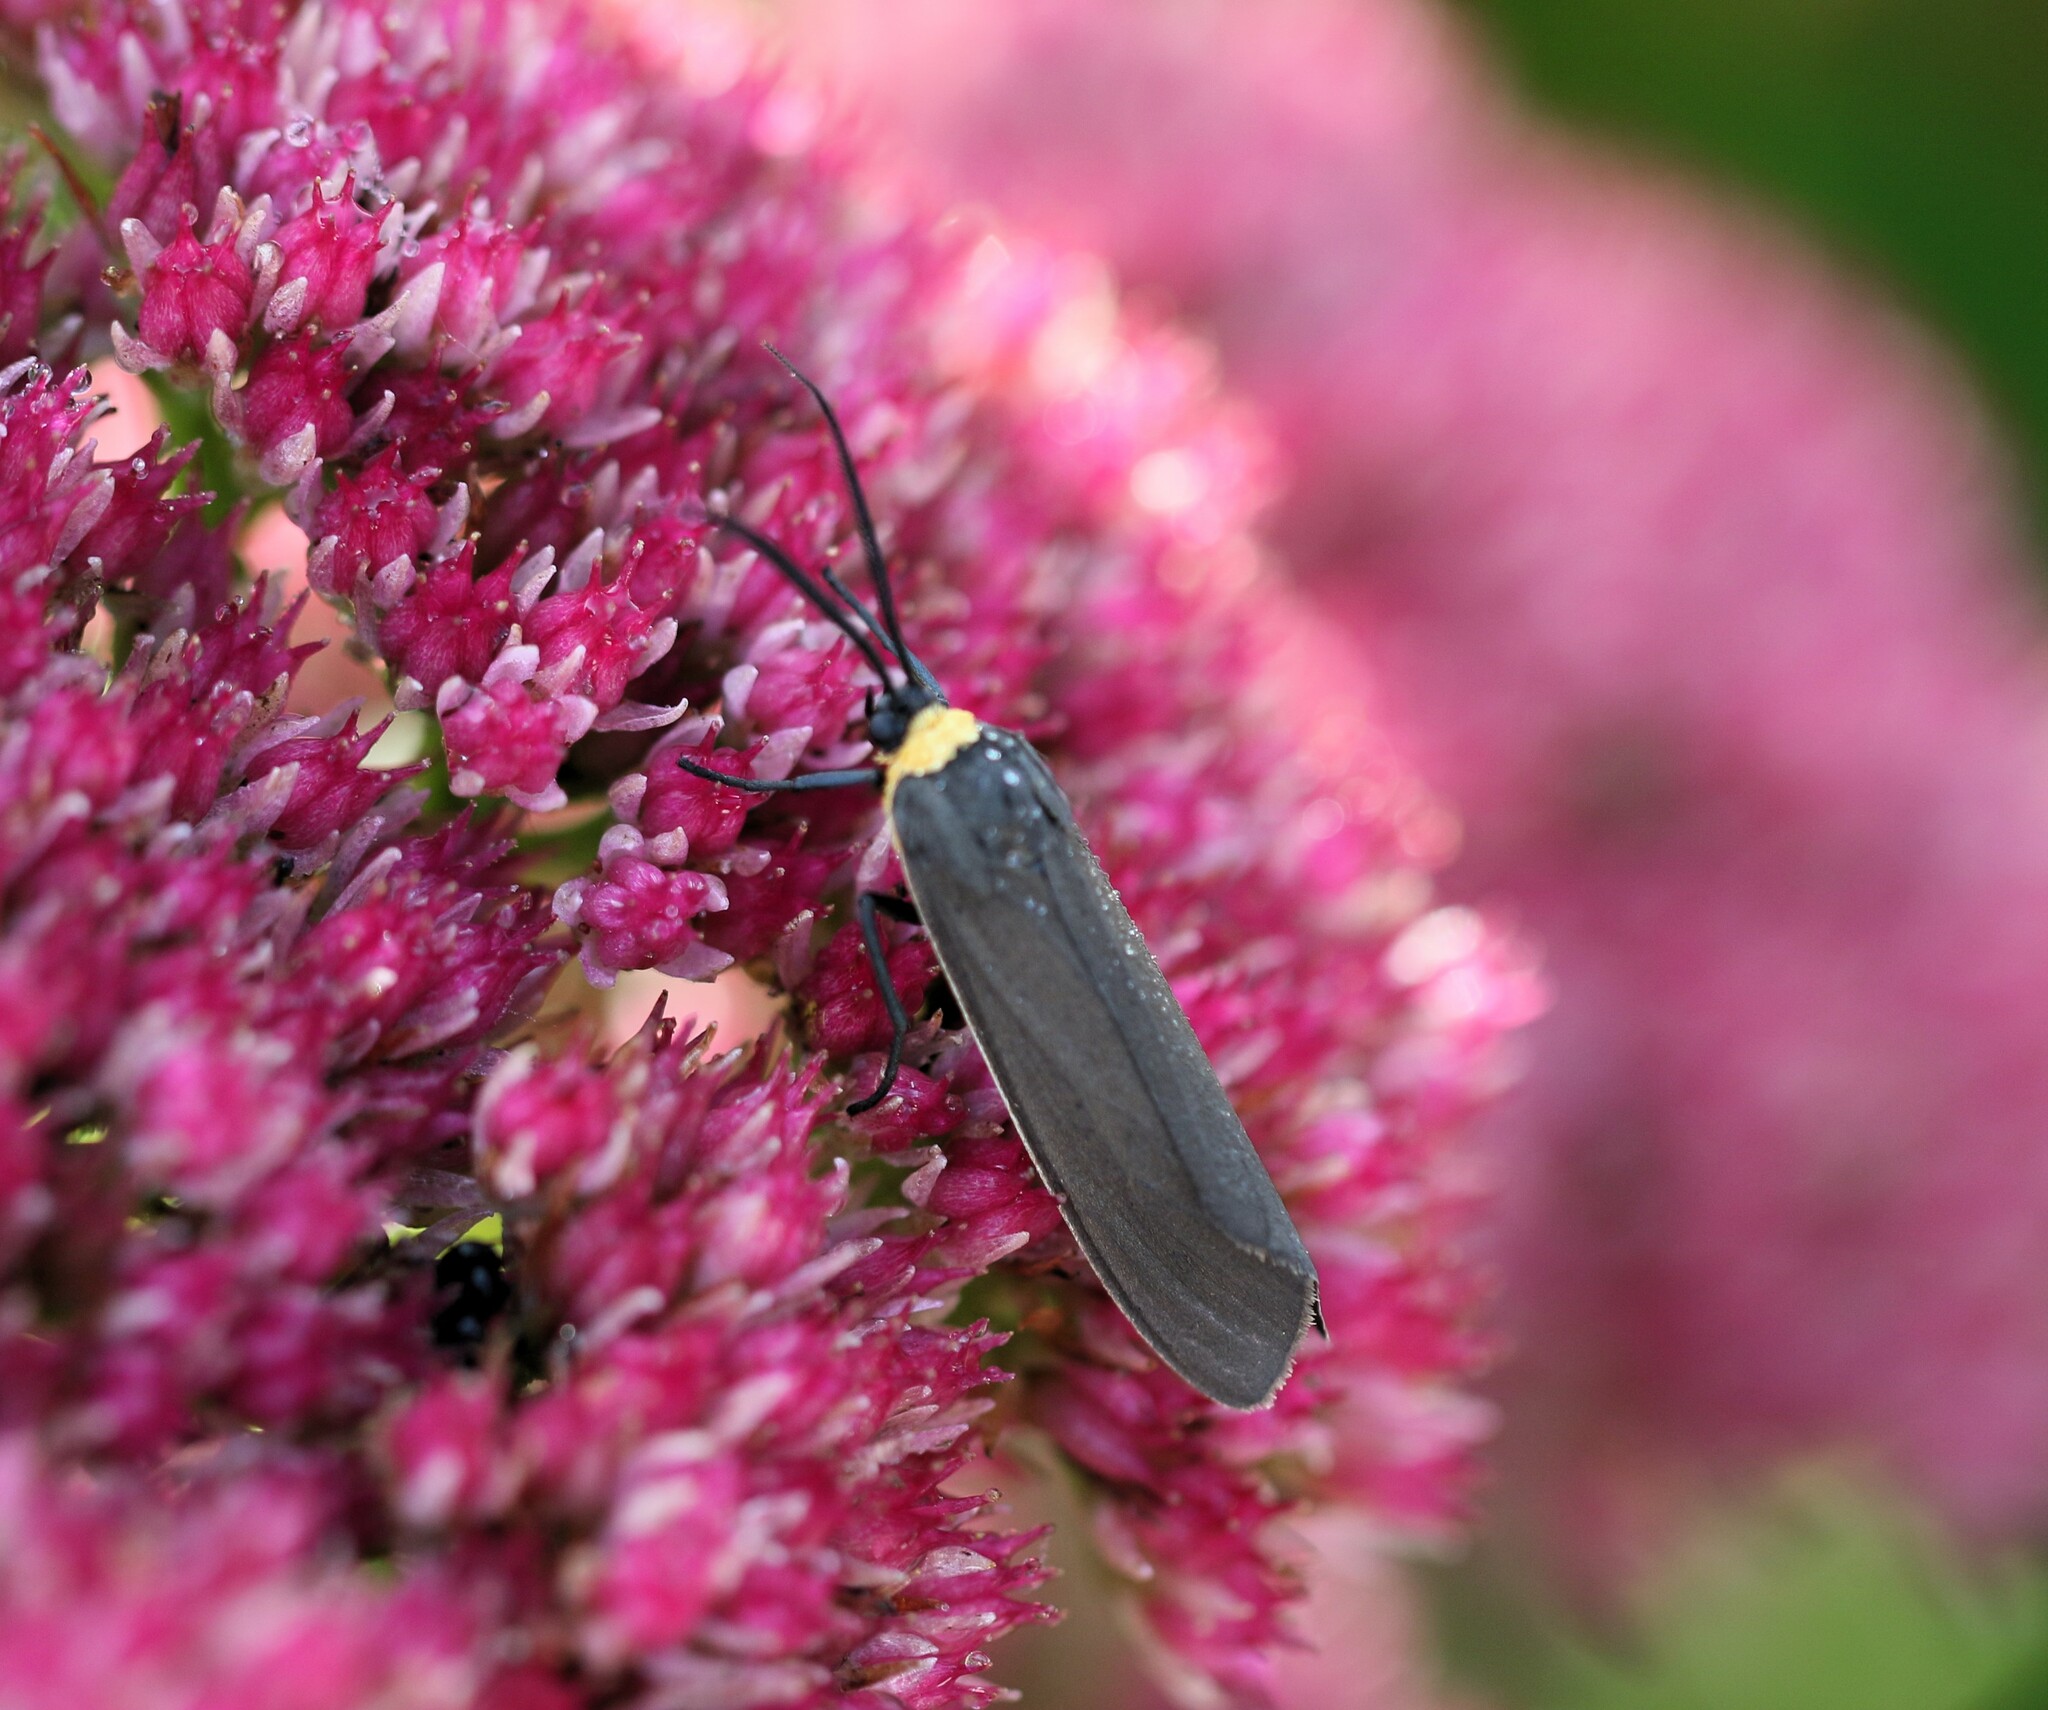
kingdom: Animalia
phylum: Arthropoda
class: Insecta
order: Lepidoptera
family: Erebidae
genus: Cisseps
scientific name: Cisseps fulvicollis
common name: Yellow-collared scape moth
